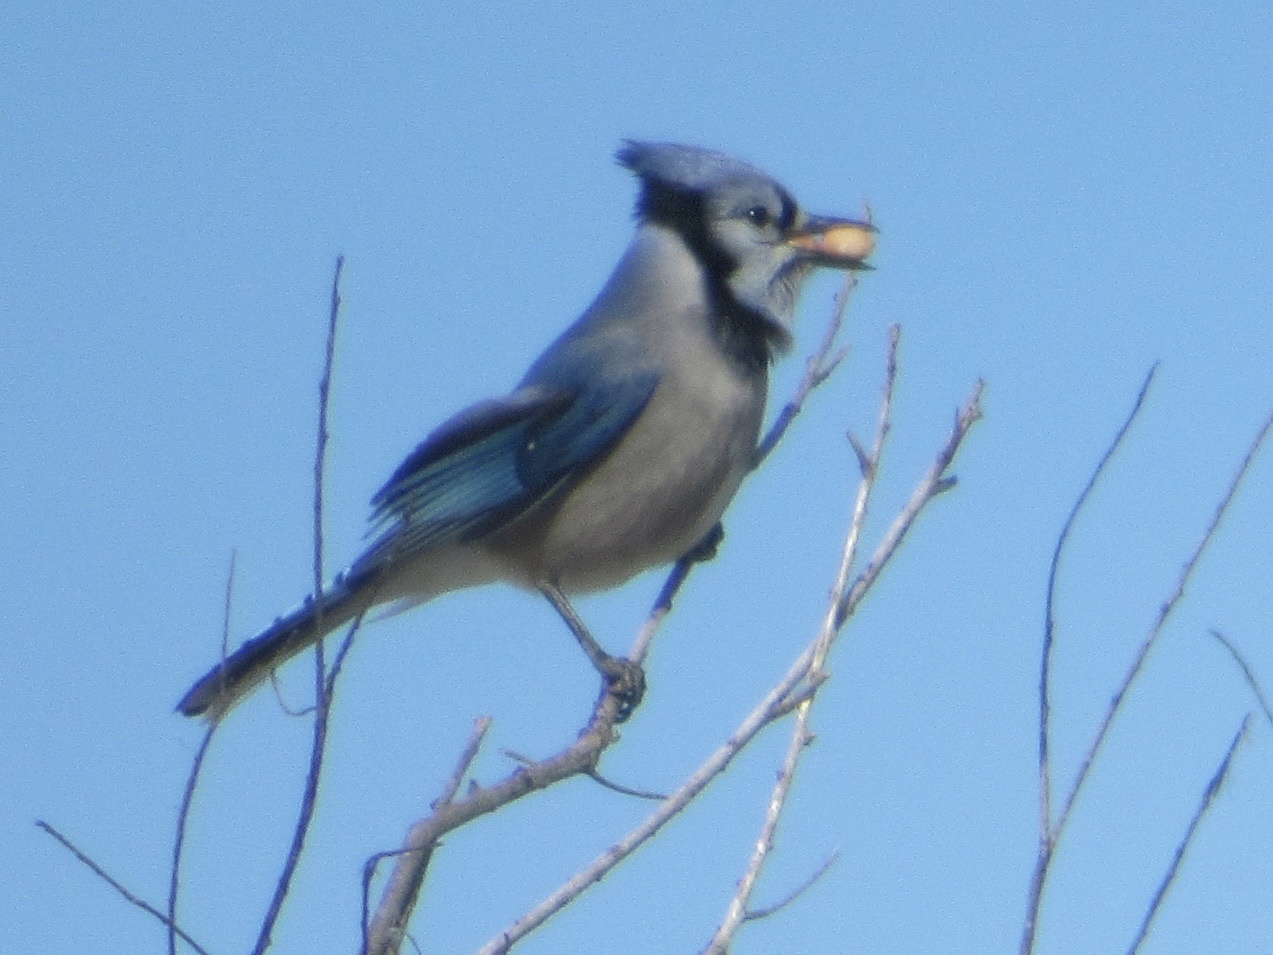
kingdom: Animalia
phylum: Chordata
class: Aves
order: Passeriformes
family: Corvidae
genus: Cyanocitta
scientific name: Cyanocitta cristata
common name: Blue jay
